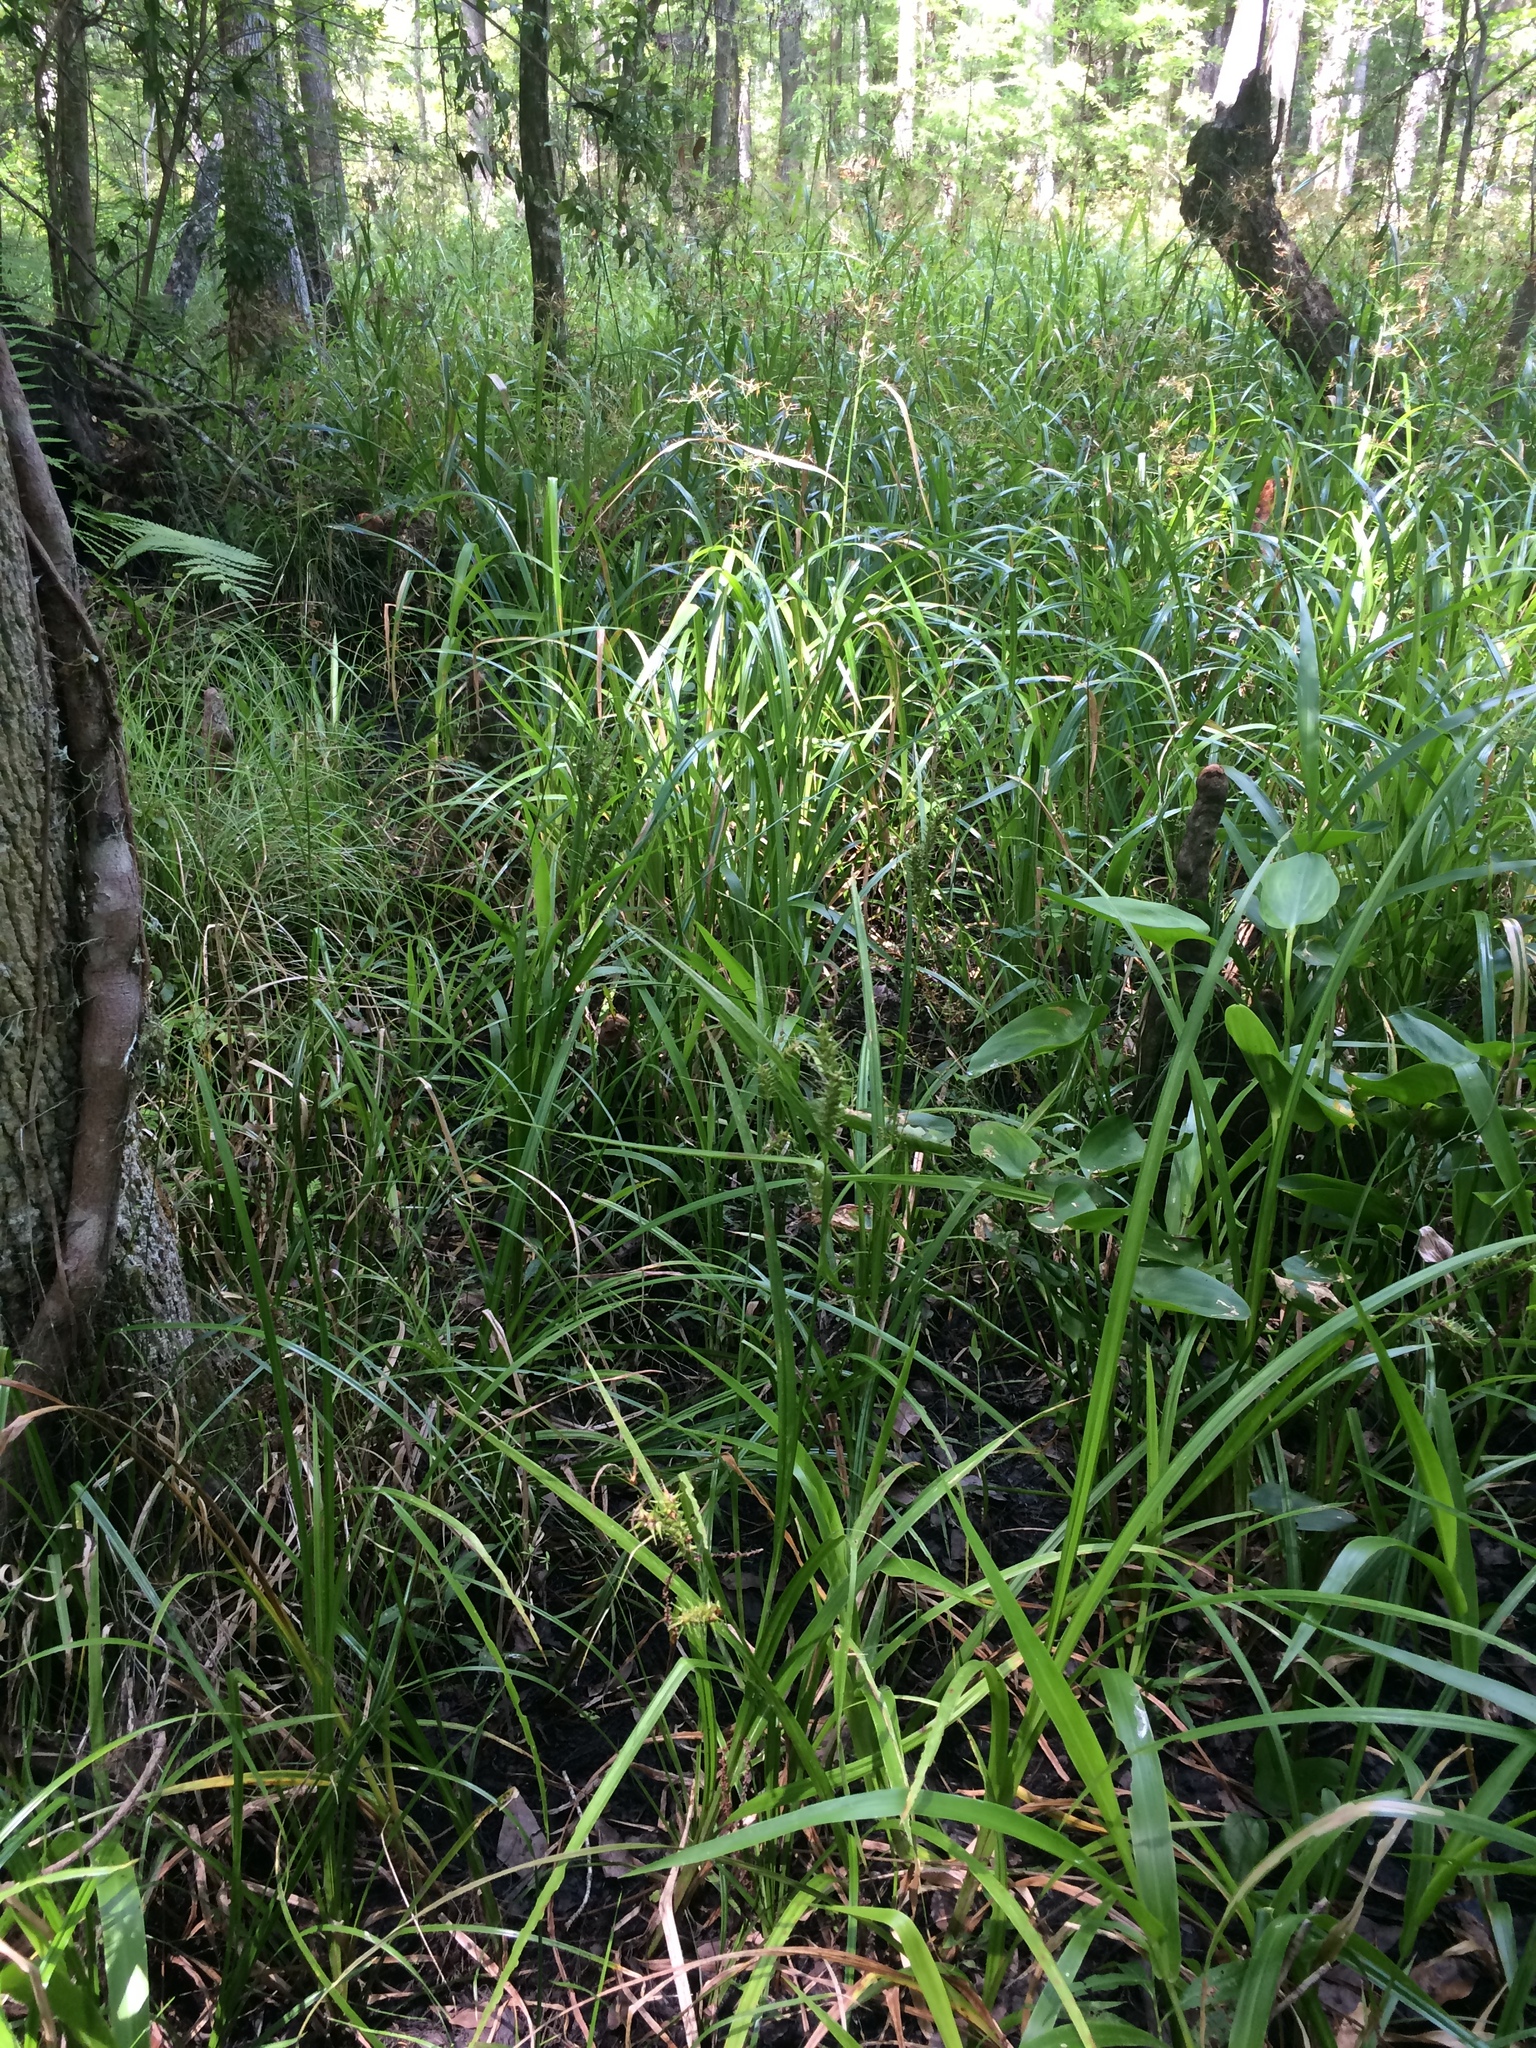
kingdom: Plantae
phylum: Tracheophyta
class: Liliopsida
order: Poales
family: Cyperaceae
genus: Carex
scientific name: Carex gigantea
